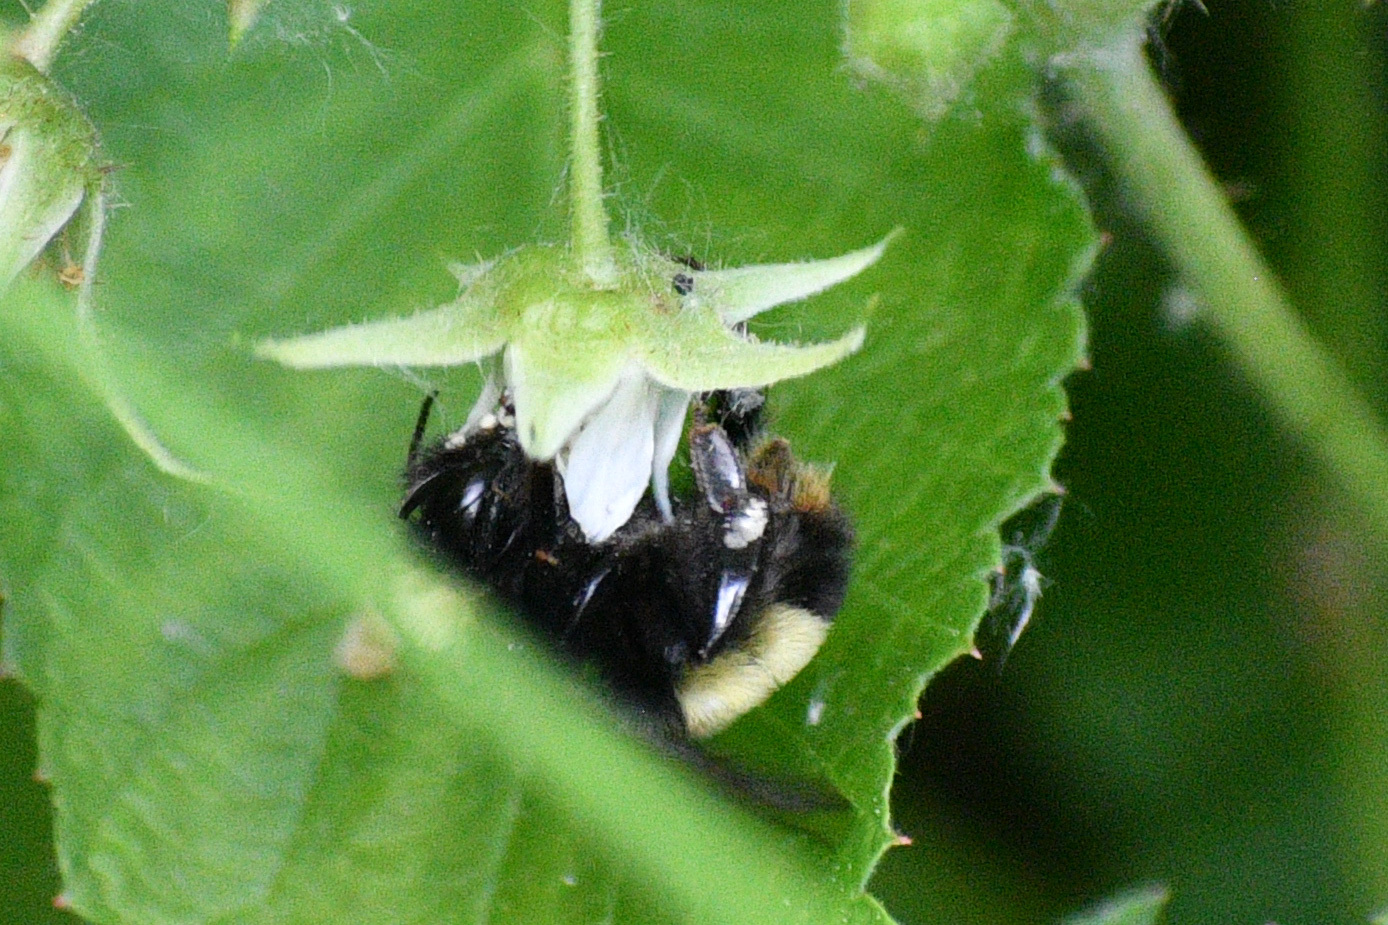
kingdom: Animalia
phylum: Arthropoda
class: Insecta
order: Hymenoptera
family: Apidae
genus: Bombus
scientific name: Bombus terricola
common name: Yellow-banded bumble bee
